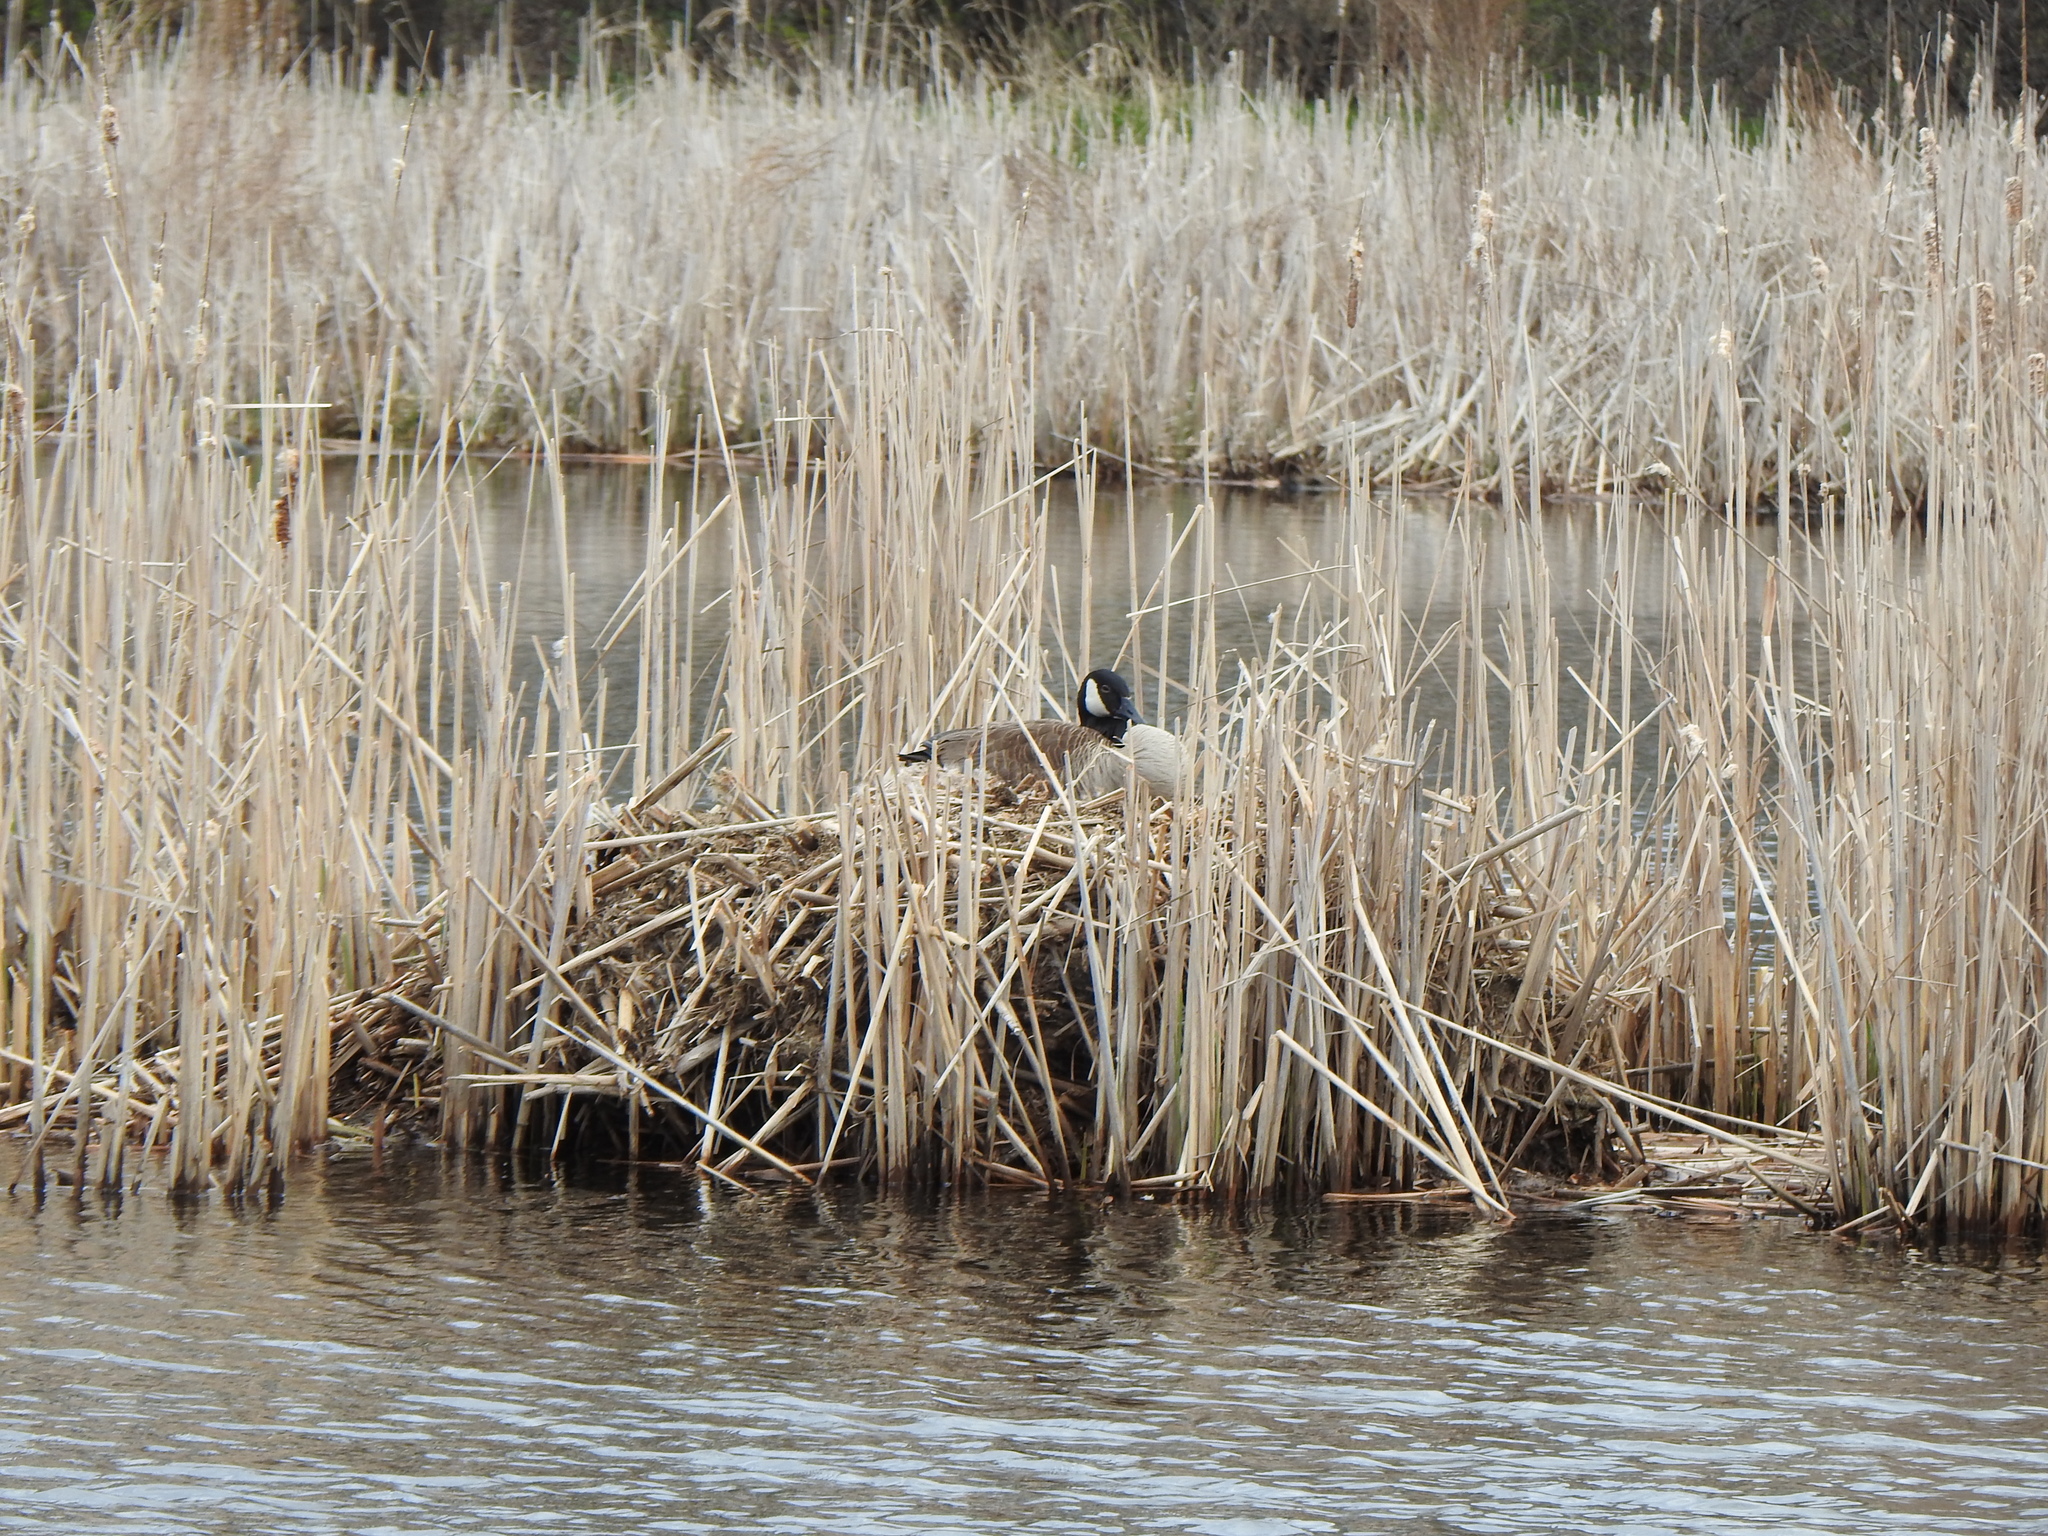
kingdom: Animalia
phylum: Chordata
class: Aves
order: Anseriformes
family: Anatidae
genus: Branta
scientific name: Branta canadensis
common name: Canada goose
